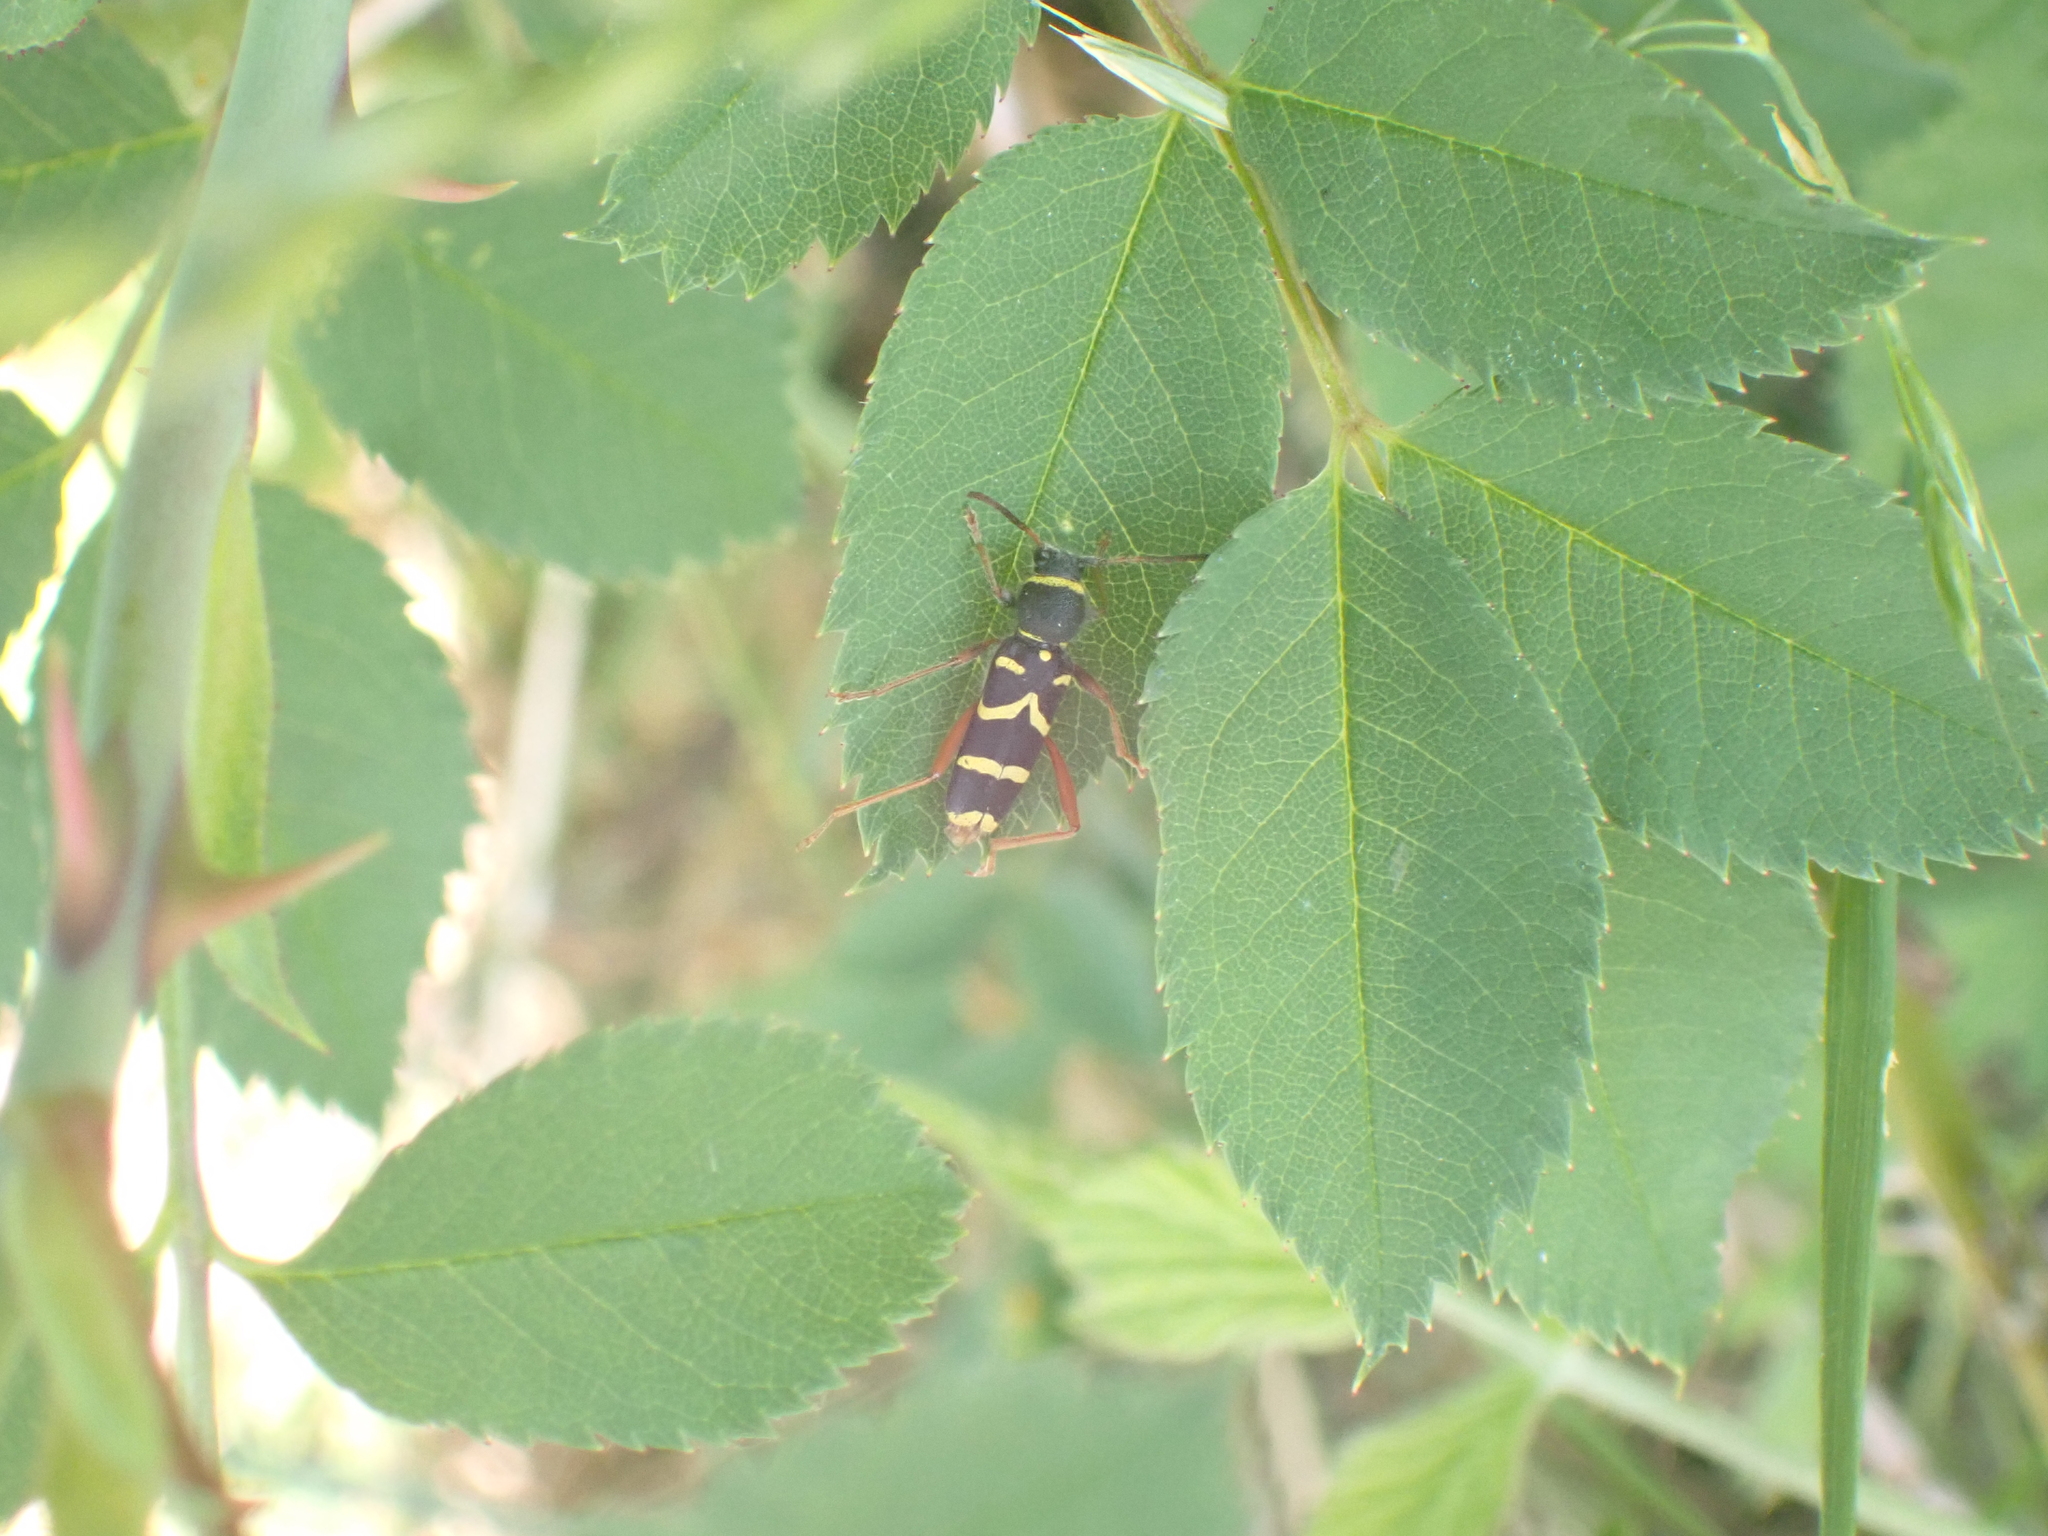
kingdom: Animalia
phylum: Arthropoda
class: Insecta
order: Coleoptera
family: Cerambycidae
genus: Clytus
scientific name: Clytus arietis
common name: Wasp beetle
